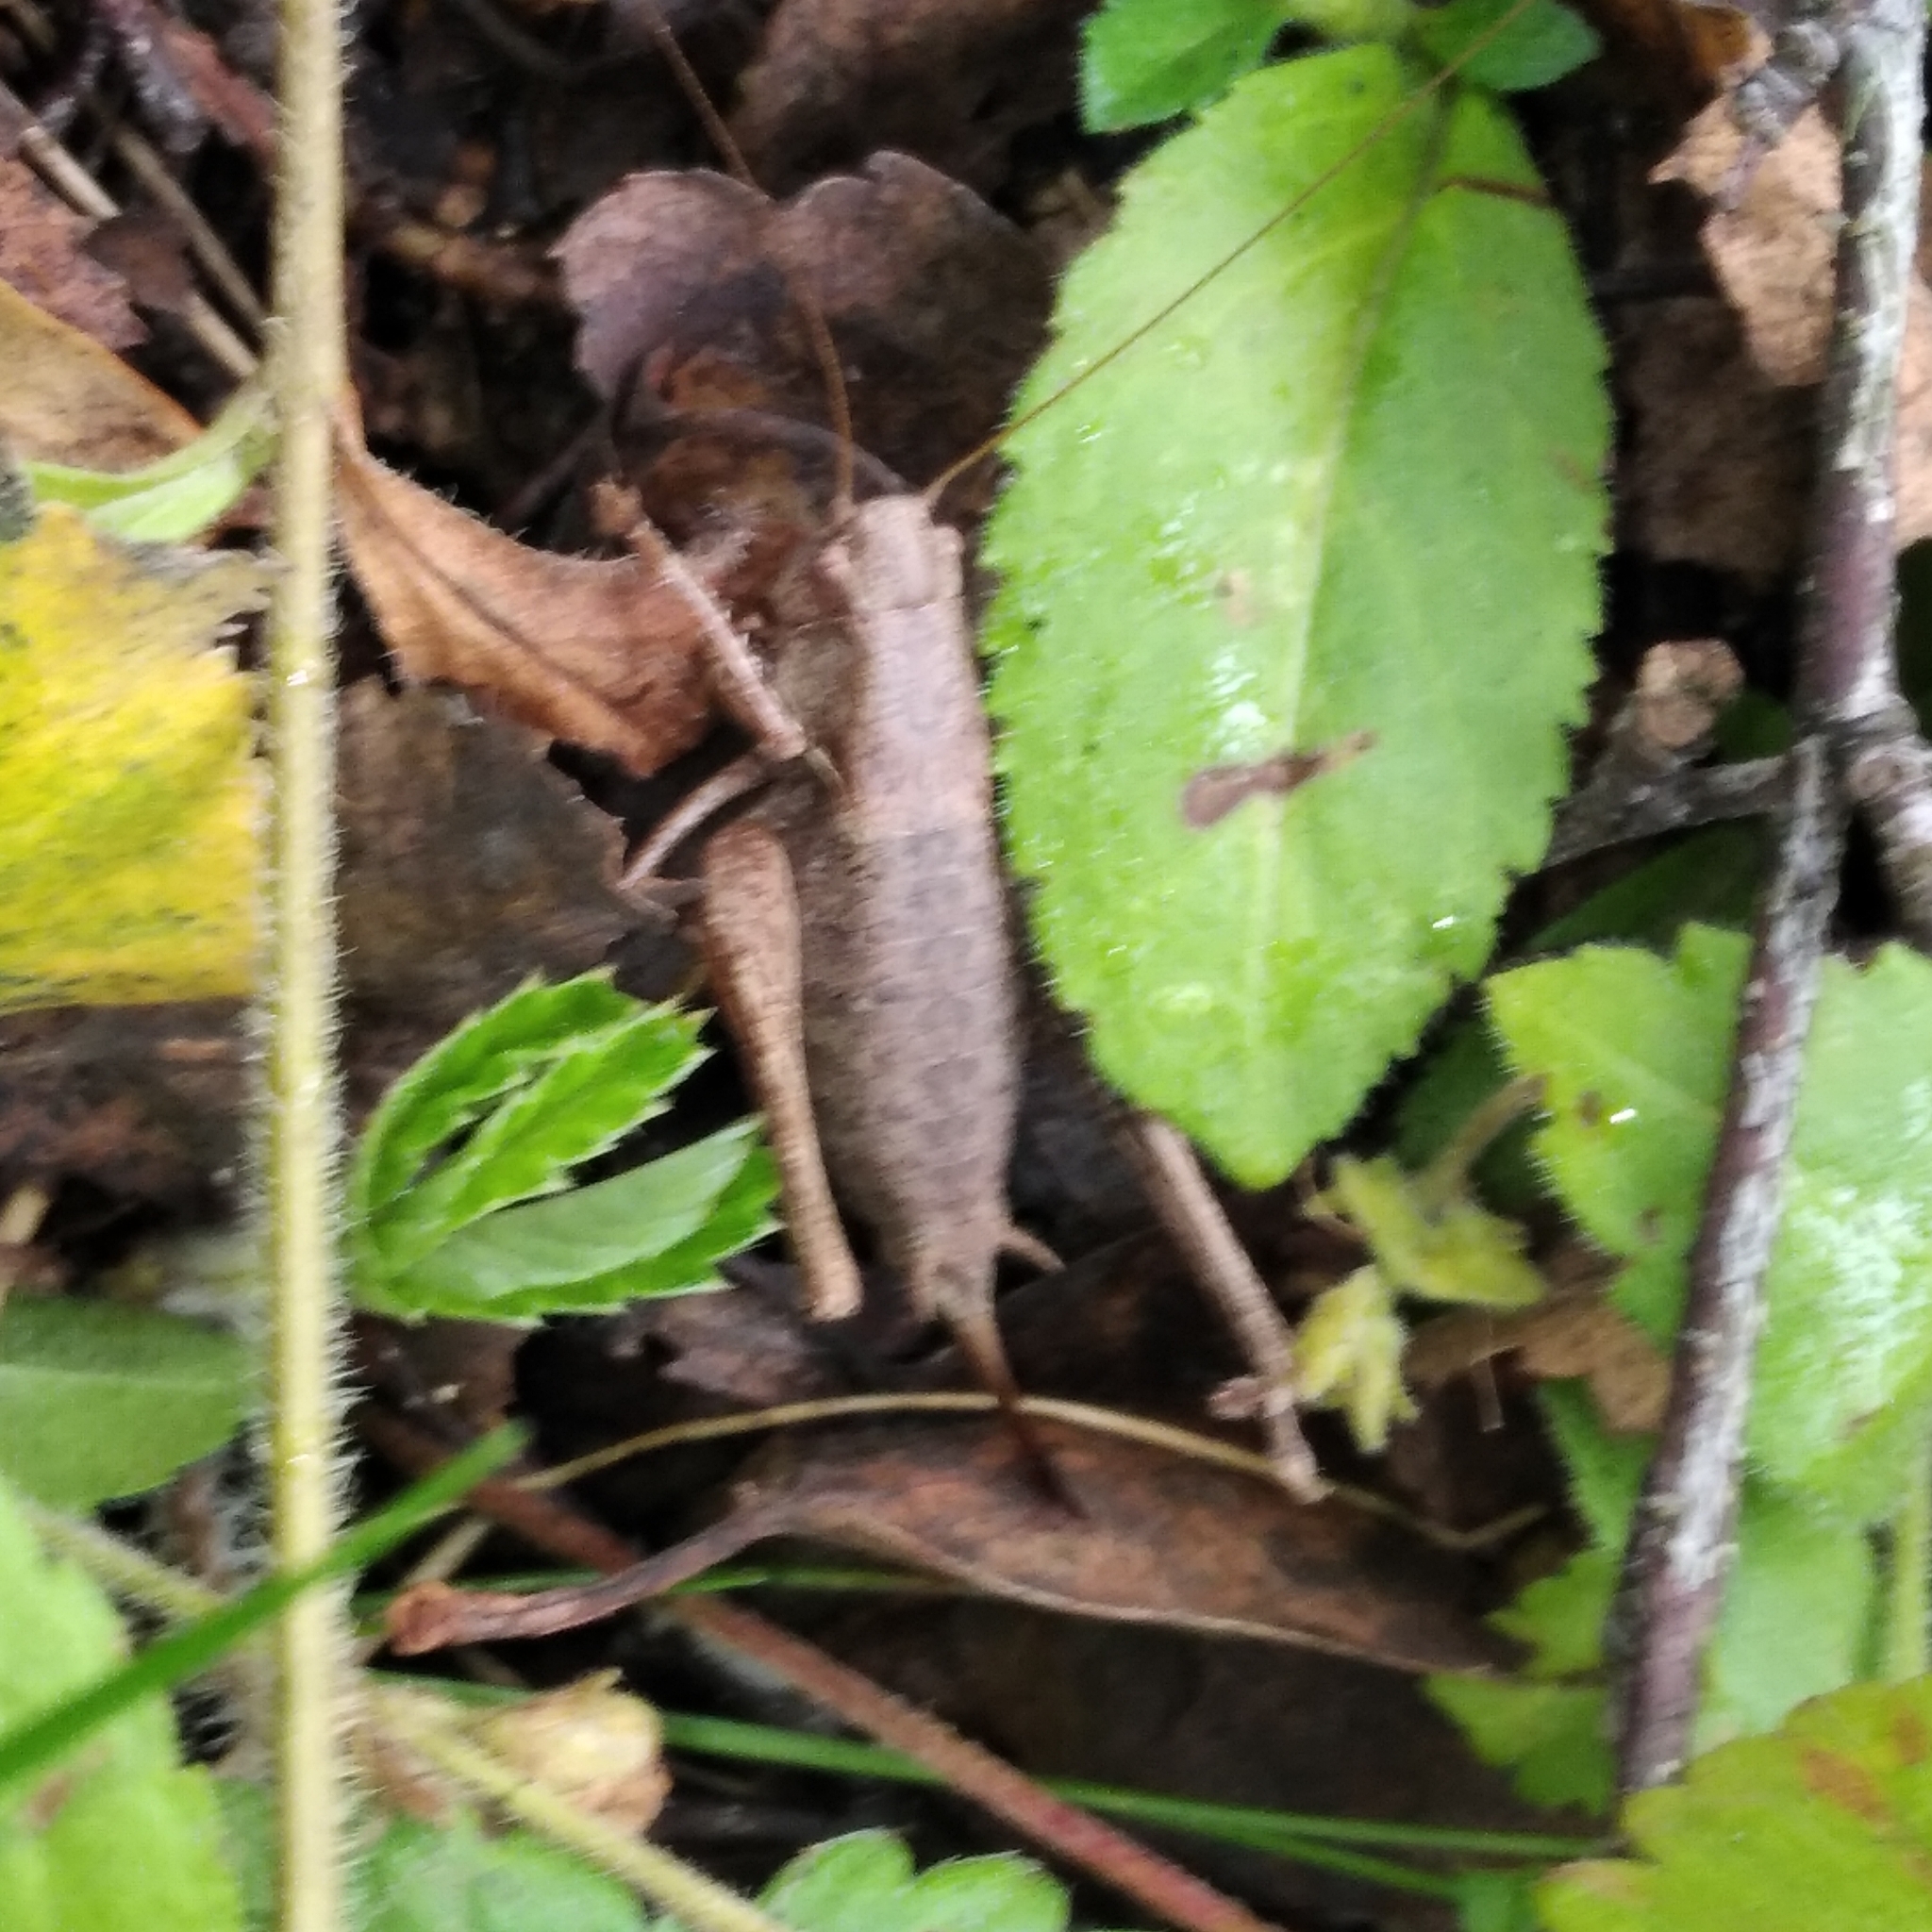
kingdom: Animalia
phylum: Arthropoda
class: Insecta
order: Orthoptera
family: Tettigoniidae
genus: Pholidoptera
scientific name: Pholidoptera griseoaptera
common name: Dark bush-cricket
